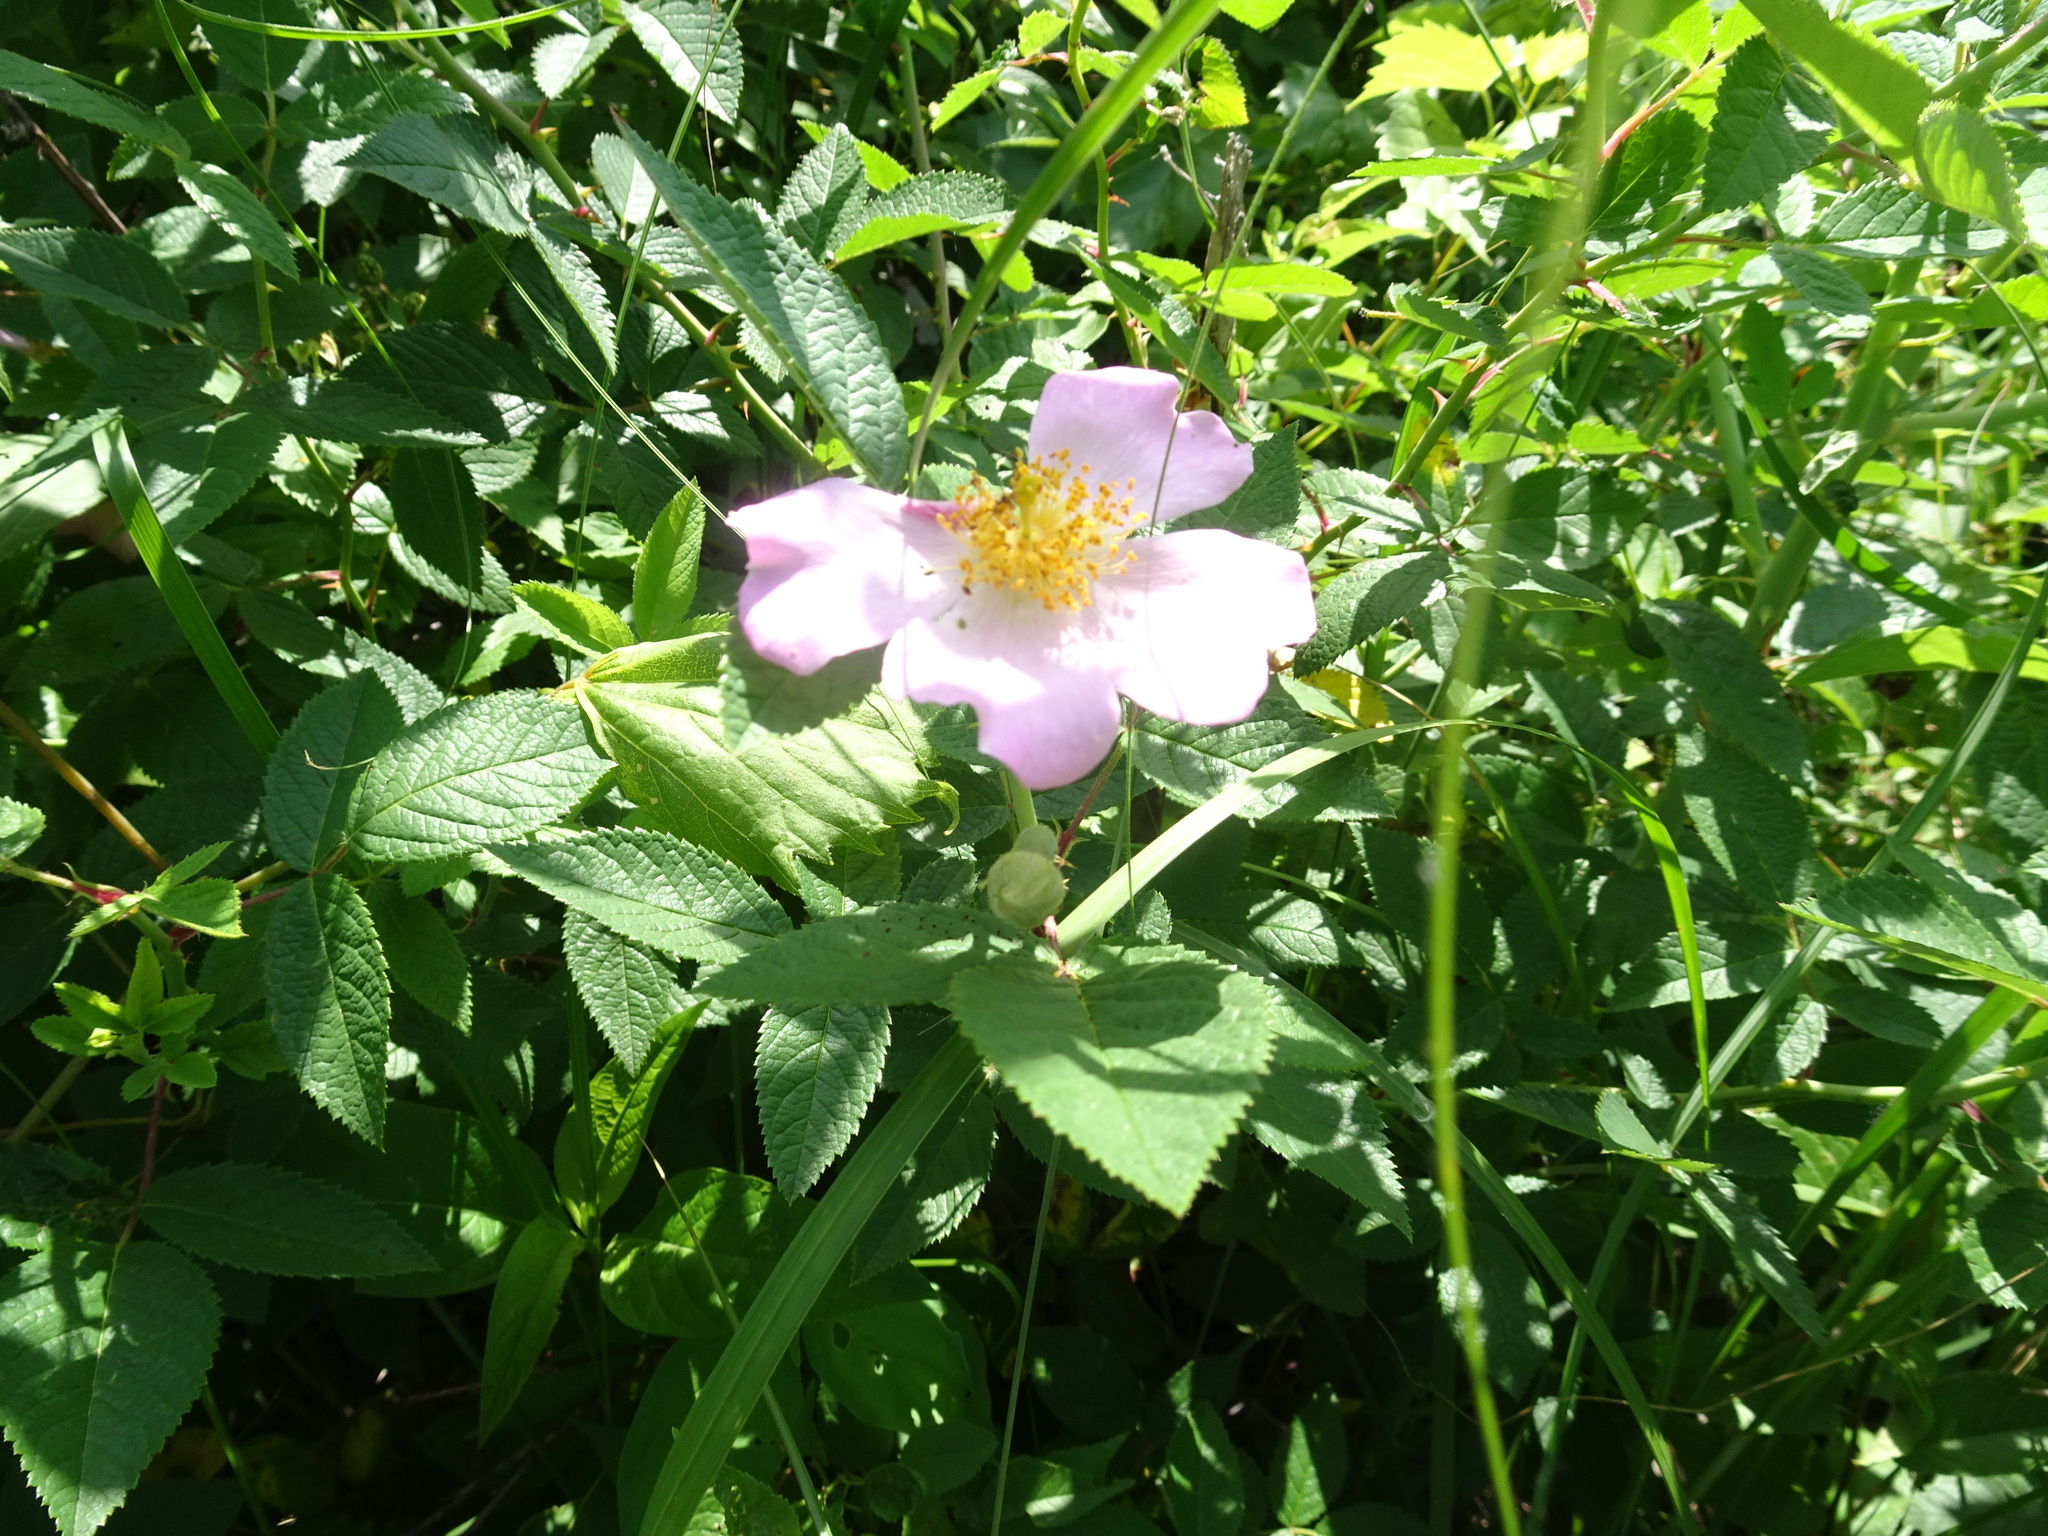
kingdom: Plantae
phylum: Tracheophyta
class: Magnoliopsida
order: Rosales
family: Rosaceae
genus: Rosa
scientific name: Rosa setigera
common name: Prairie rose
